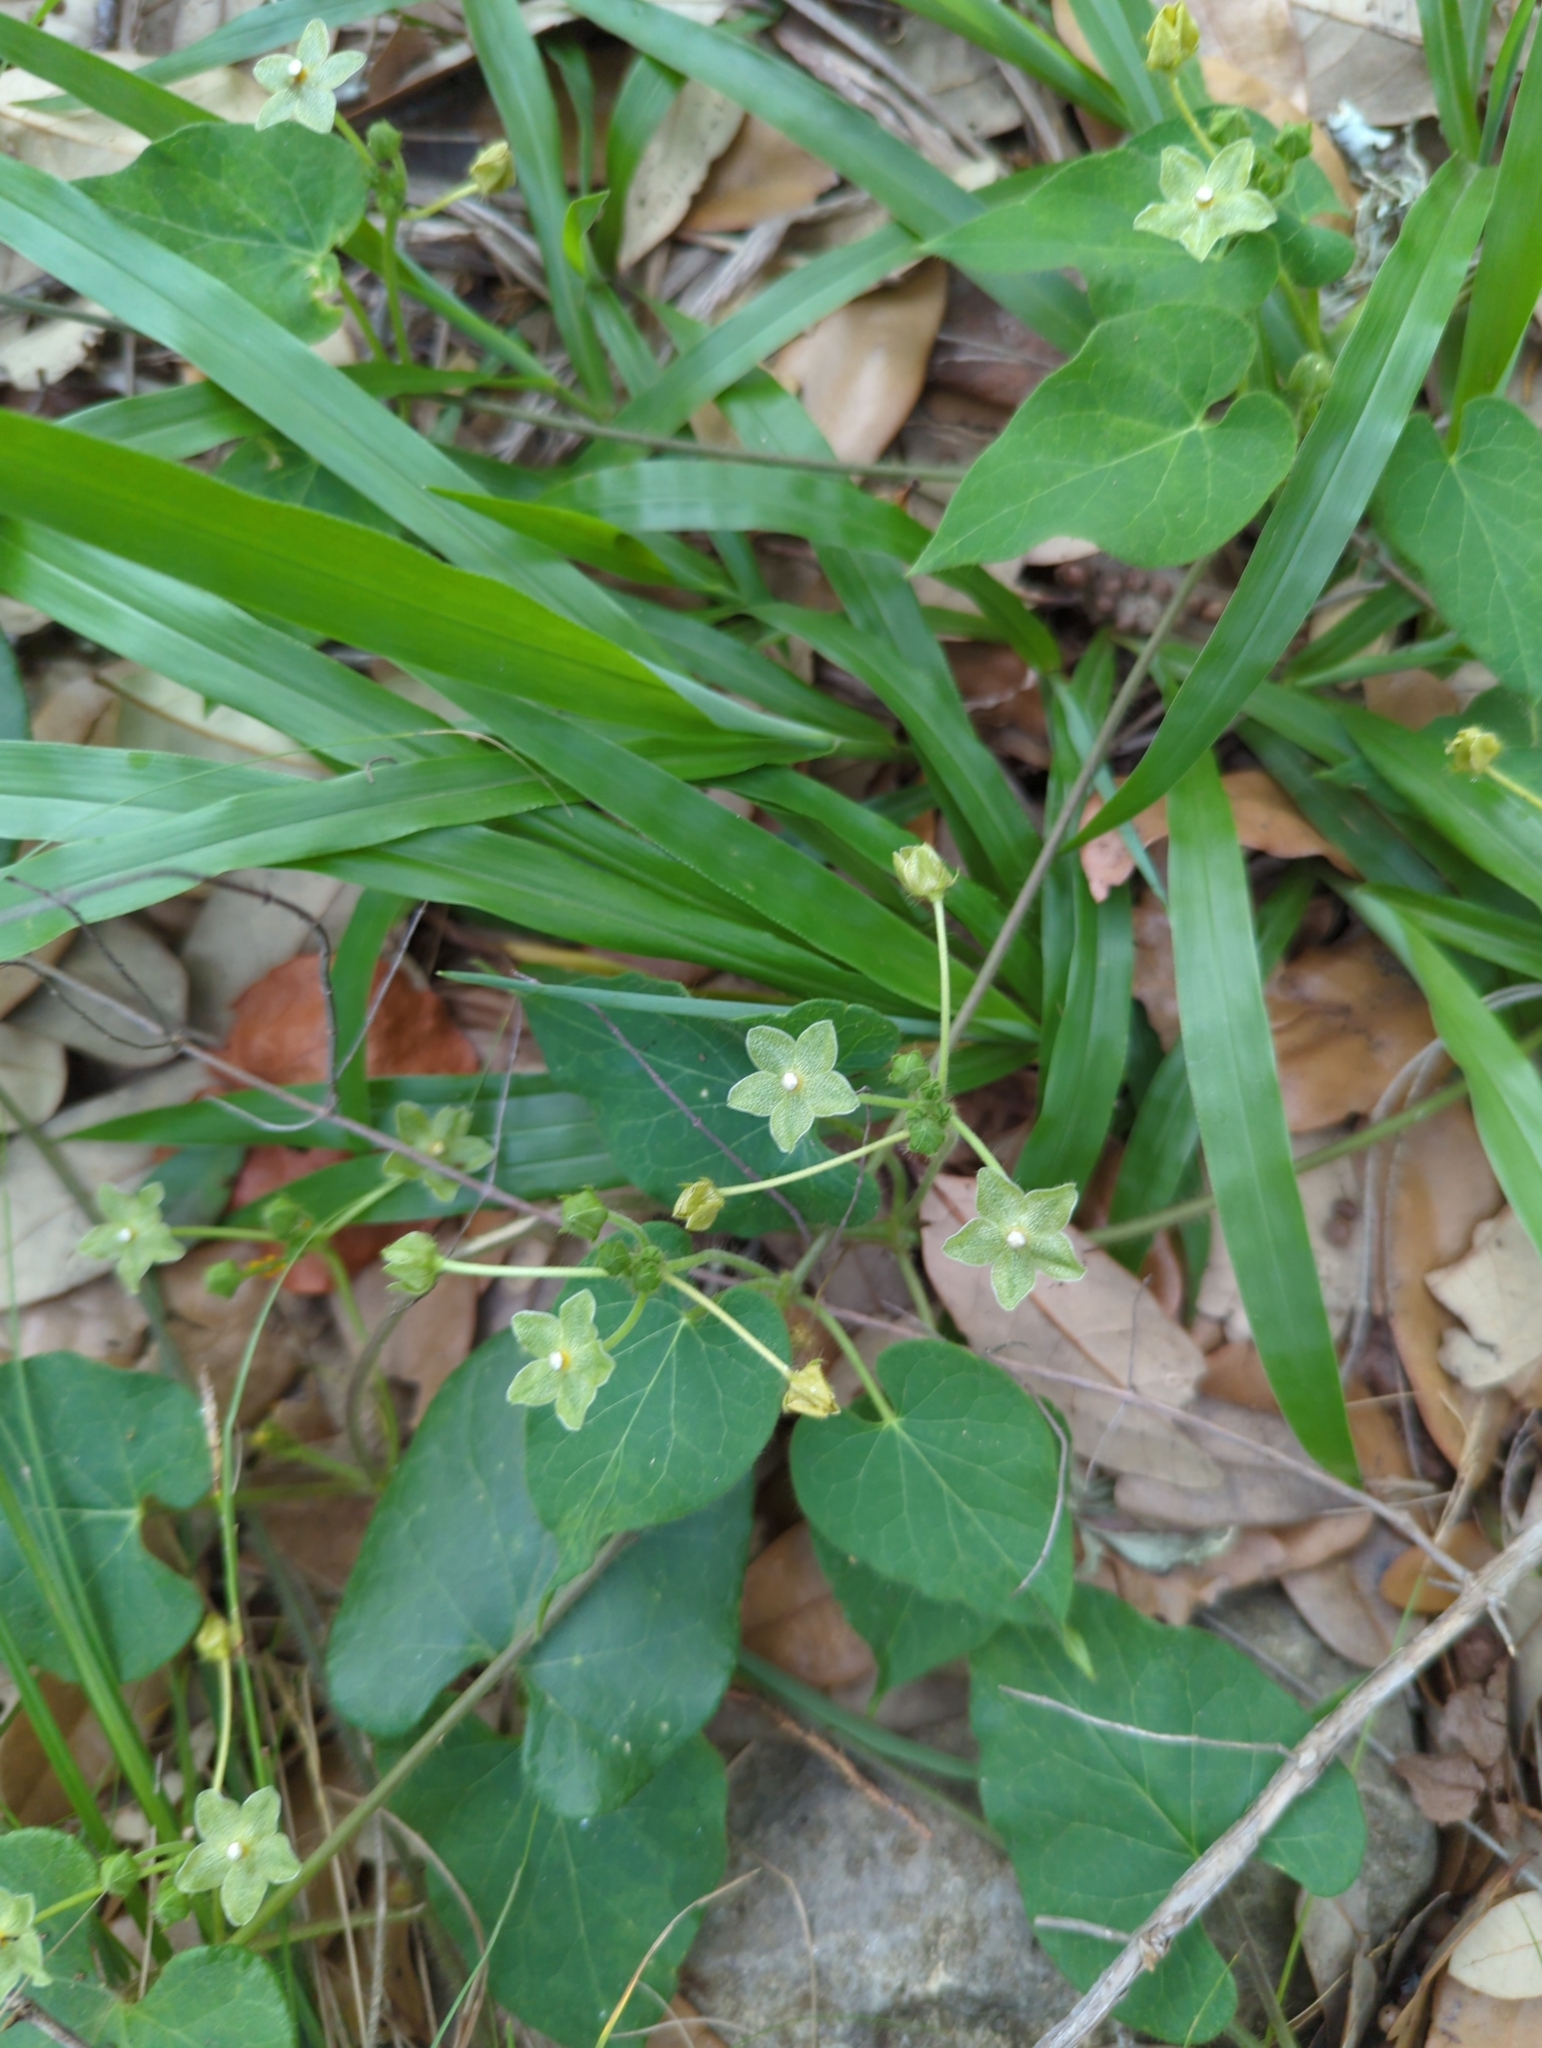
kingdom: Plantae
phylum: Tracheophyta
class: Magnoliopsida
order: Gentianales
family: Apocynaceae
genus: Dictyanthus
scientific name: Dictyanthus reticulatus
